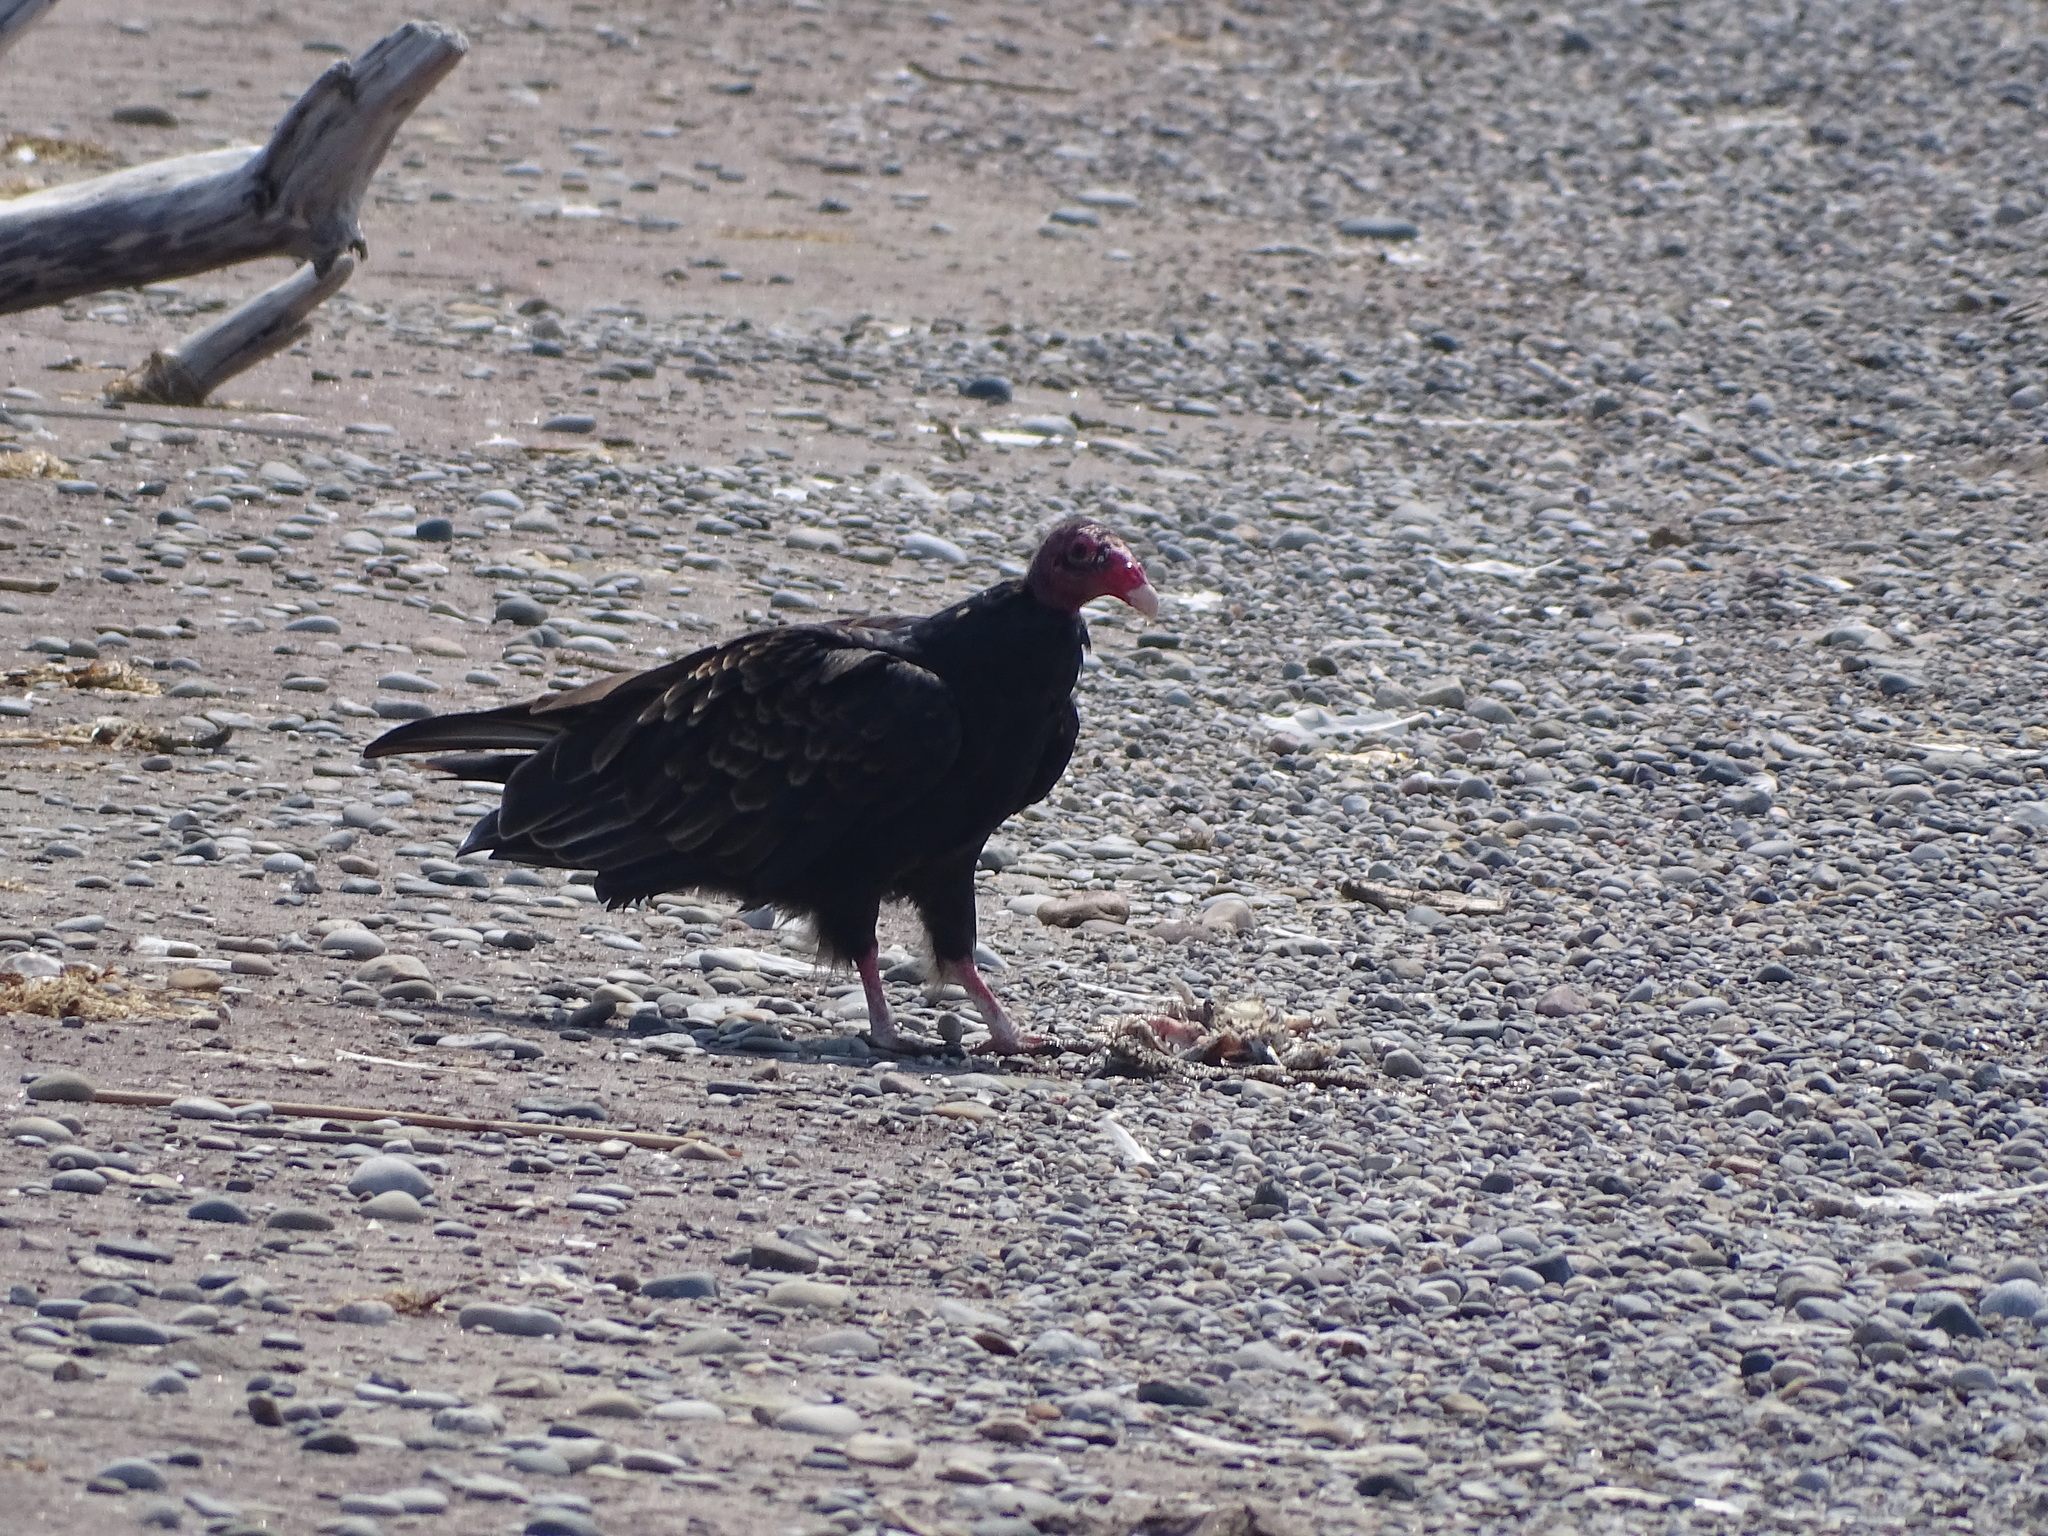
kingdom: Animalia
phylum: Chordata
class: Aves
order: Accipitriformes
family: Cathartidae
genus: Cathartes
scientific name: Cathartes aura
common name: Turkey vulture
